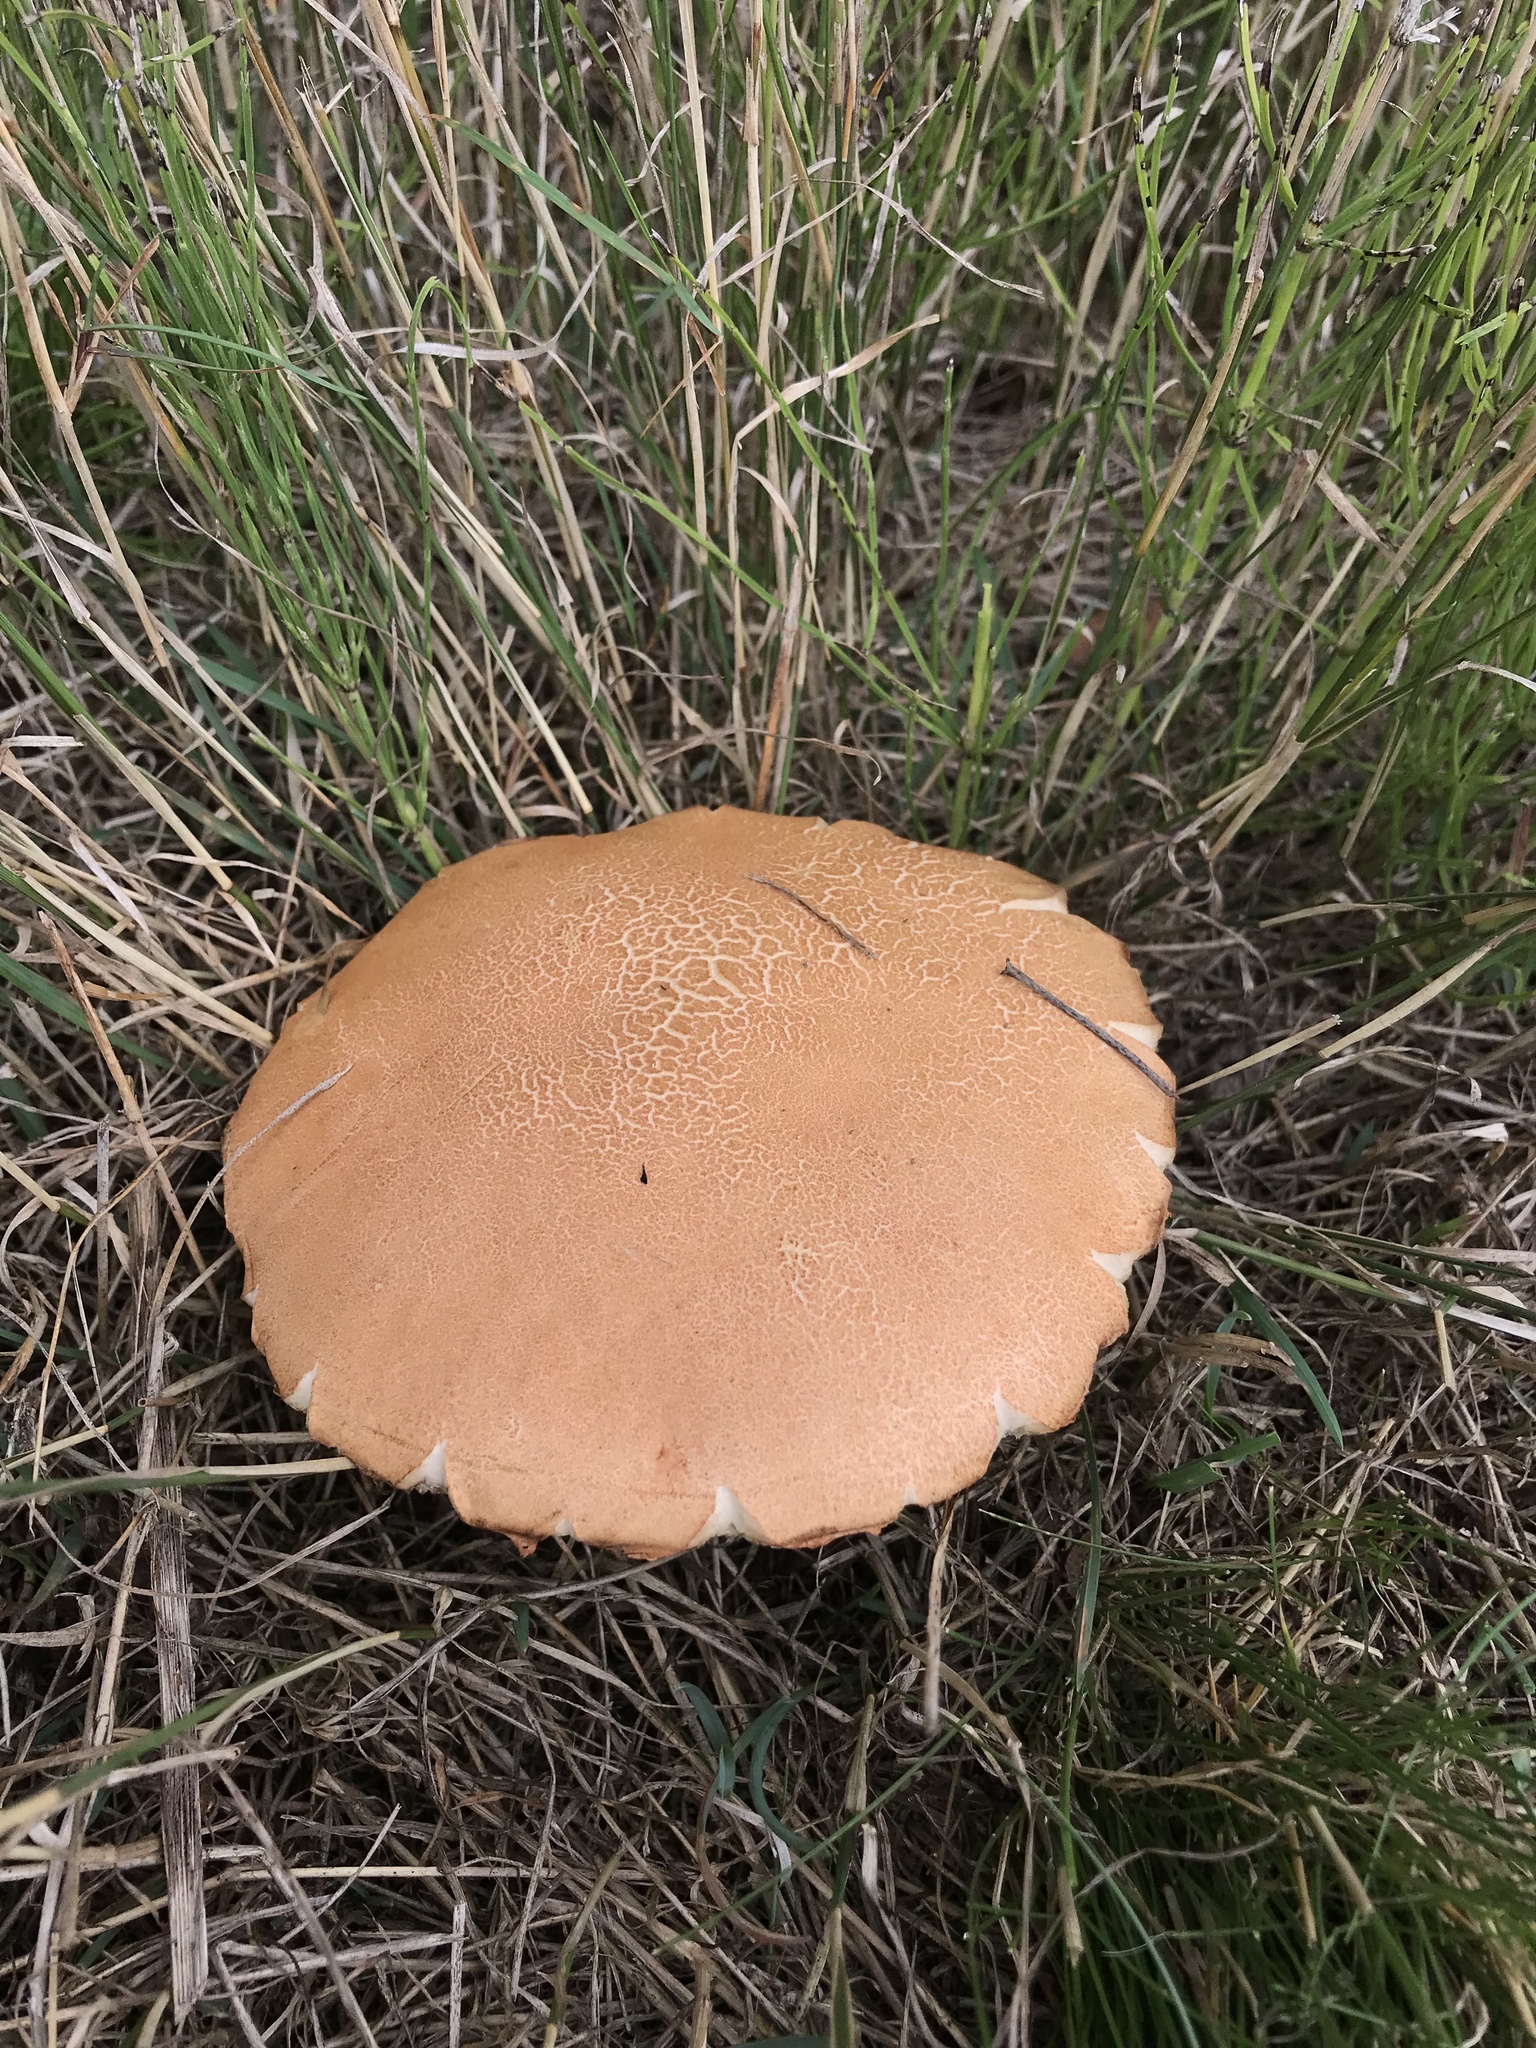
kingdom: Fungi
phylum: Basidiomycota
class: Agaricomycetes
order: Boletales
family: Boletaceae
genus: Leccinum
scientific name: Leccinum insigne
